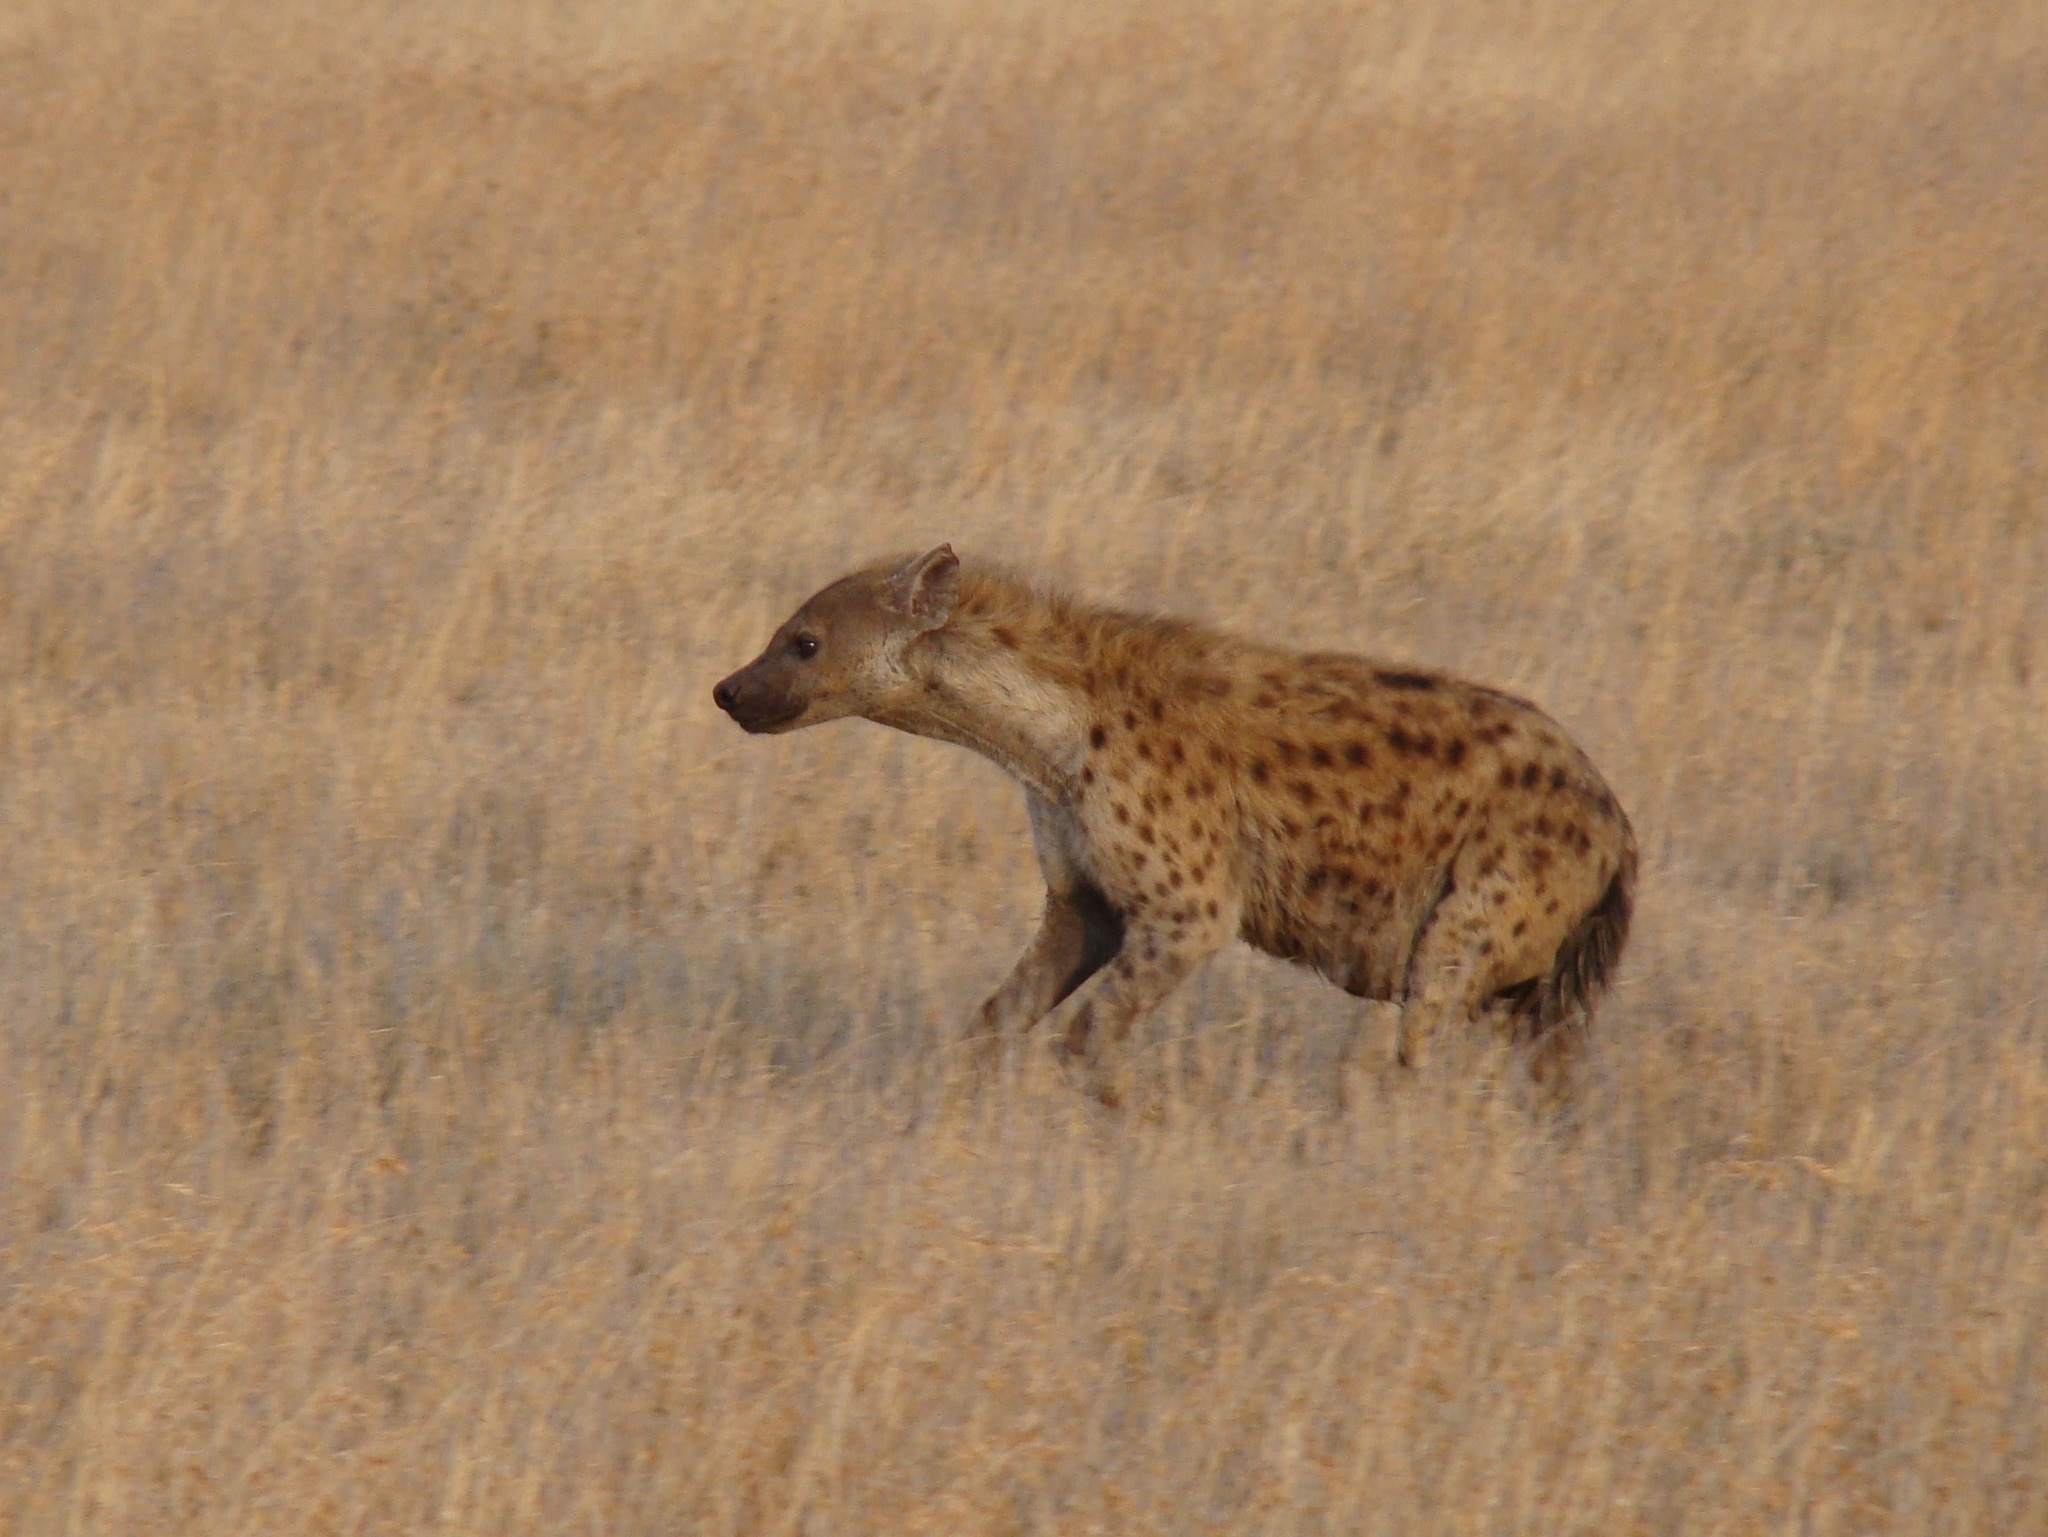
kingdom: Animalia
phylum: Chordata
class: Mammalia
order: Carnivora
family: Hyaenidae
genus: Crocuta
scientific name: Crocuta crocuta
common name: Spotted hyaena
